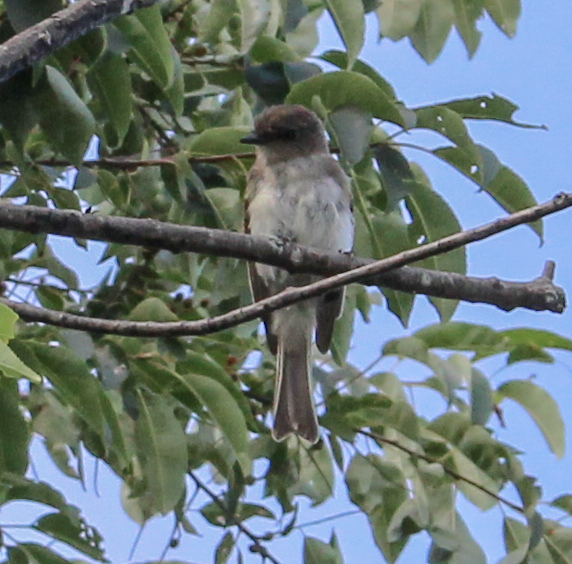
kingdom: Animalia
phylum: Chordata
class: Aves
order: Passeriformes
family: Tyrannidae
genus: Sayornis
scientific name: Sayornis phoebe
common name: Eastern phoebe
